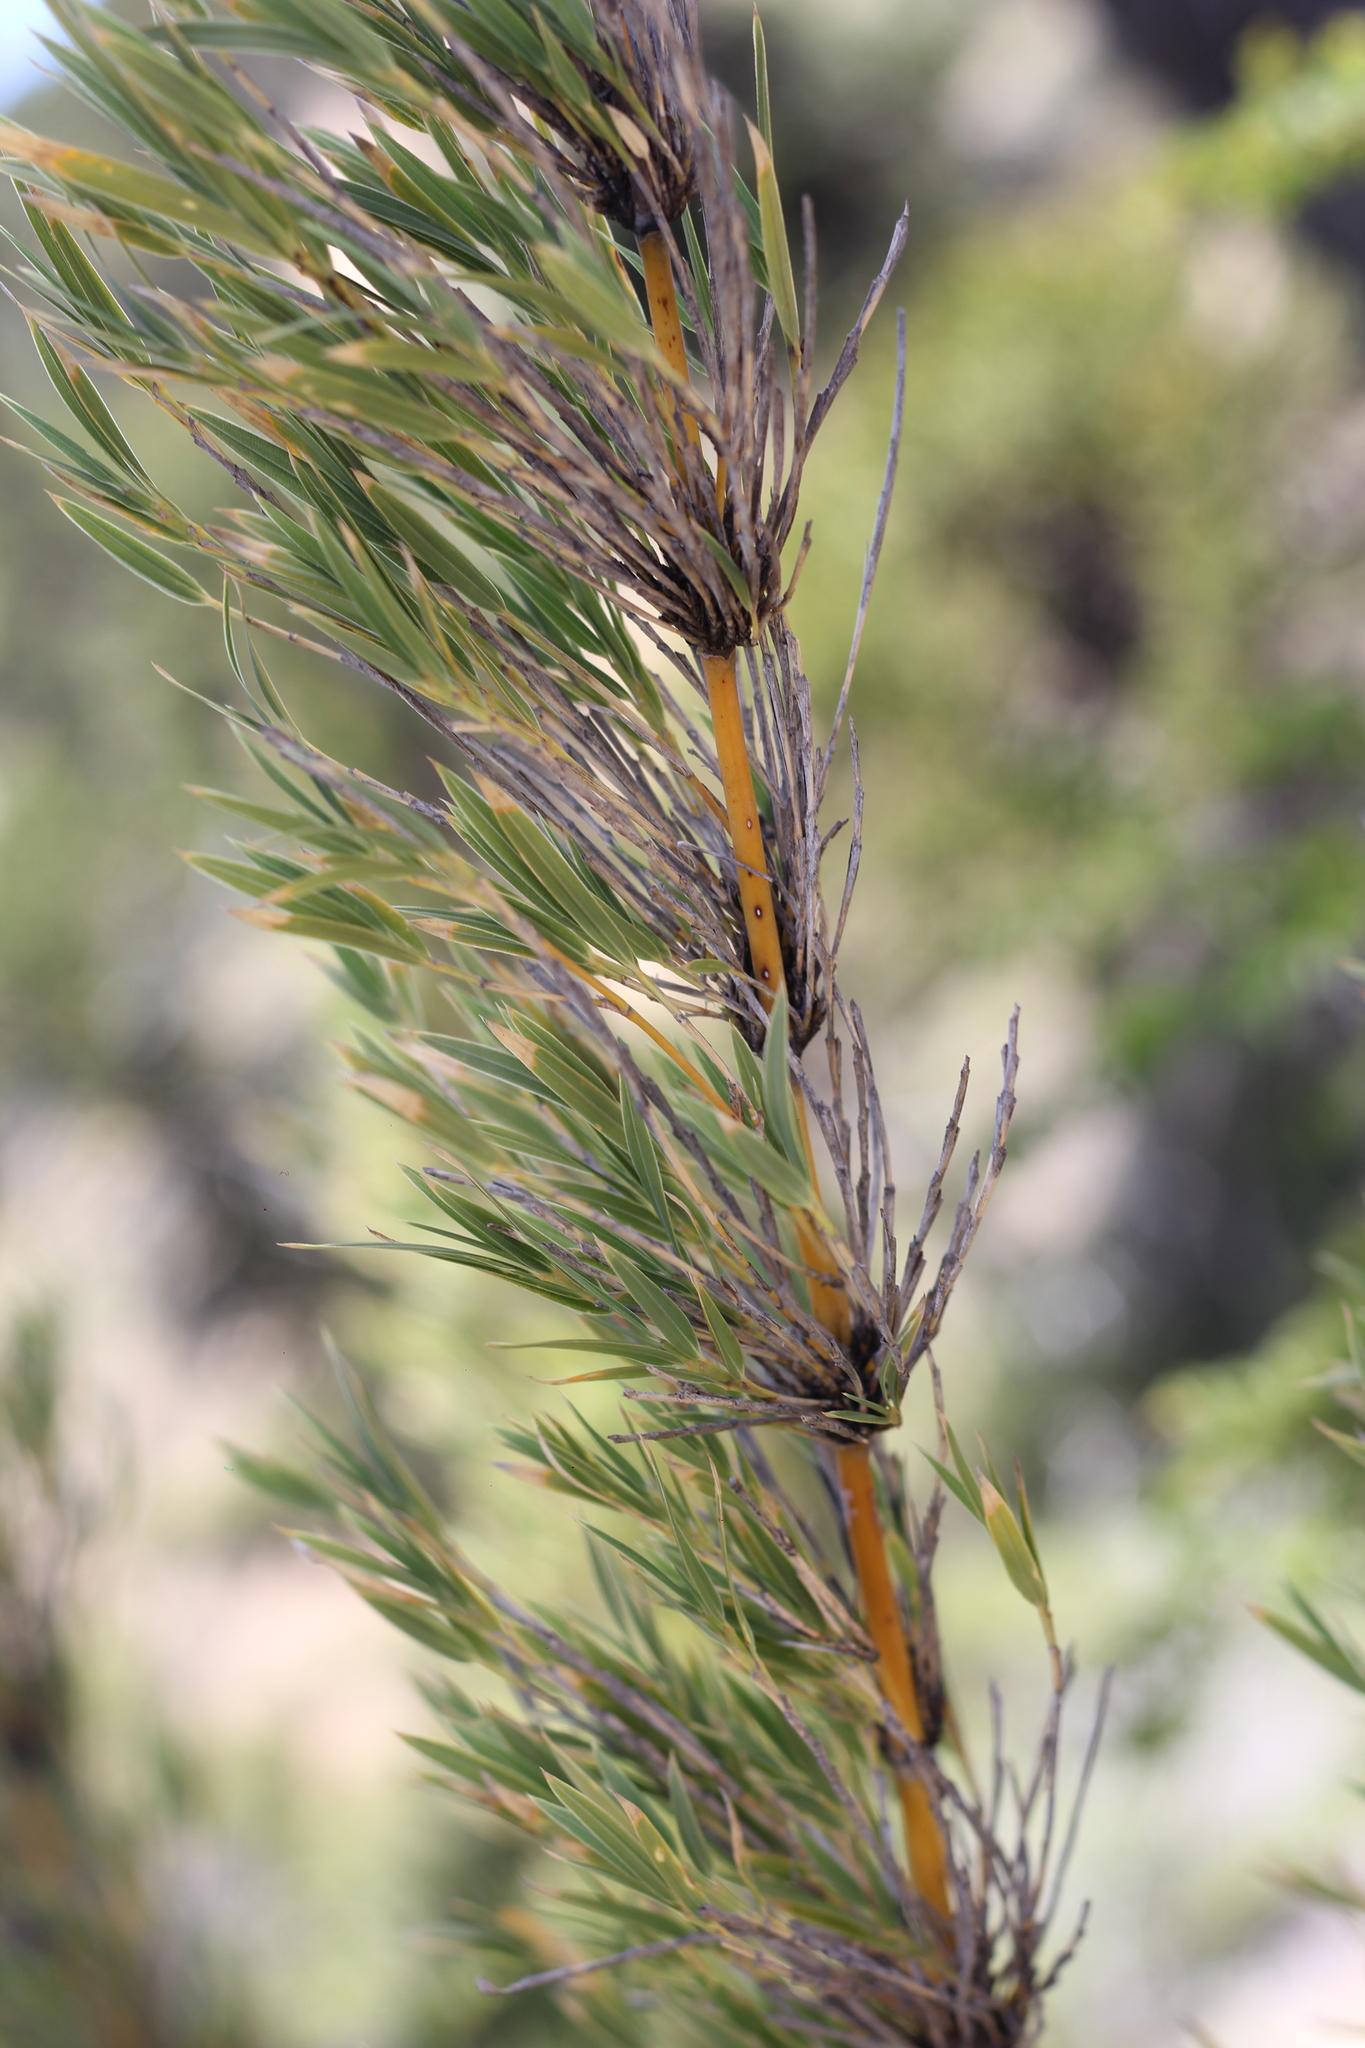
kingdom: Plantae
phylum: Tracheophyta
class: Liliopsida
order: Poales
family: Poaceae
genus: Chusquea
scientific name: Chusquea culeou
